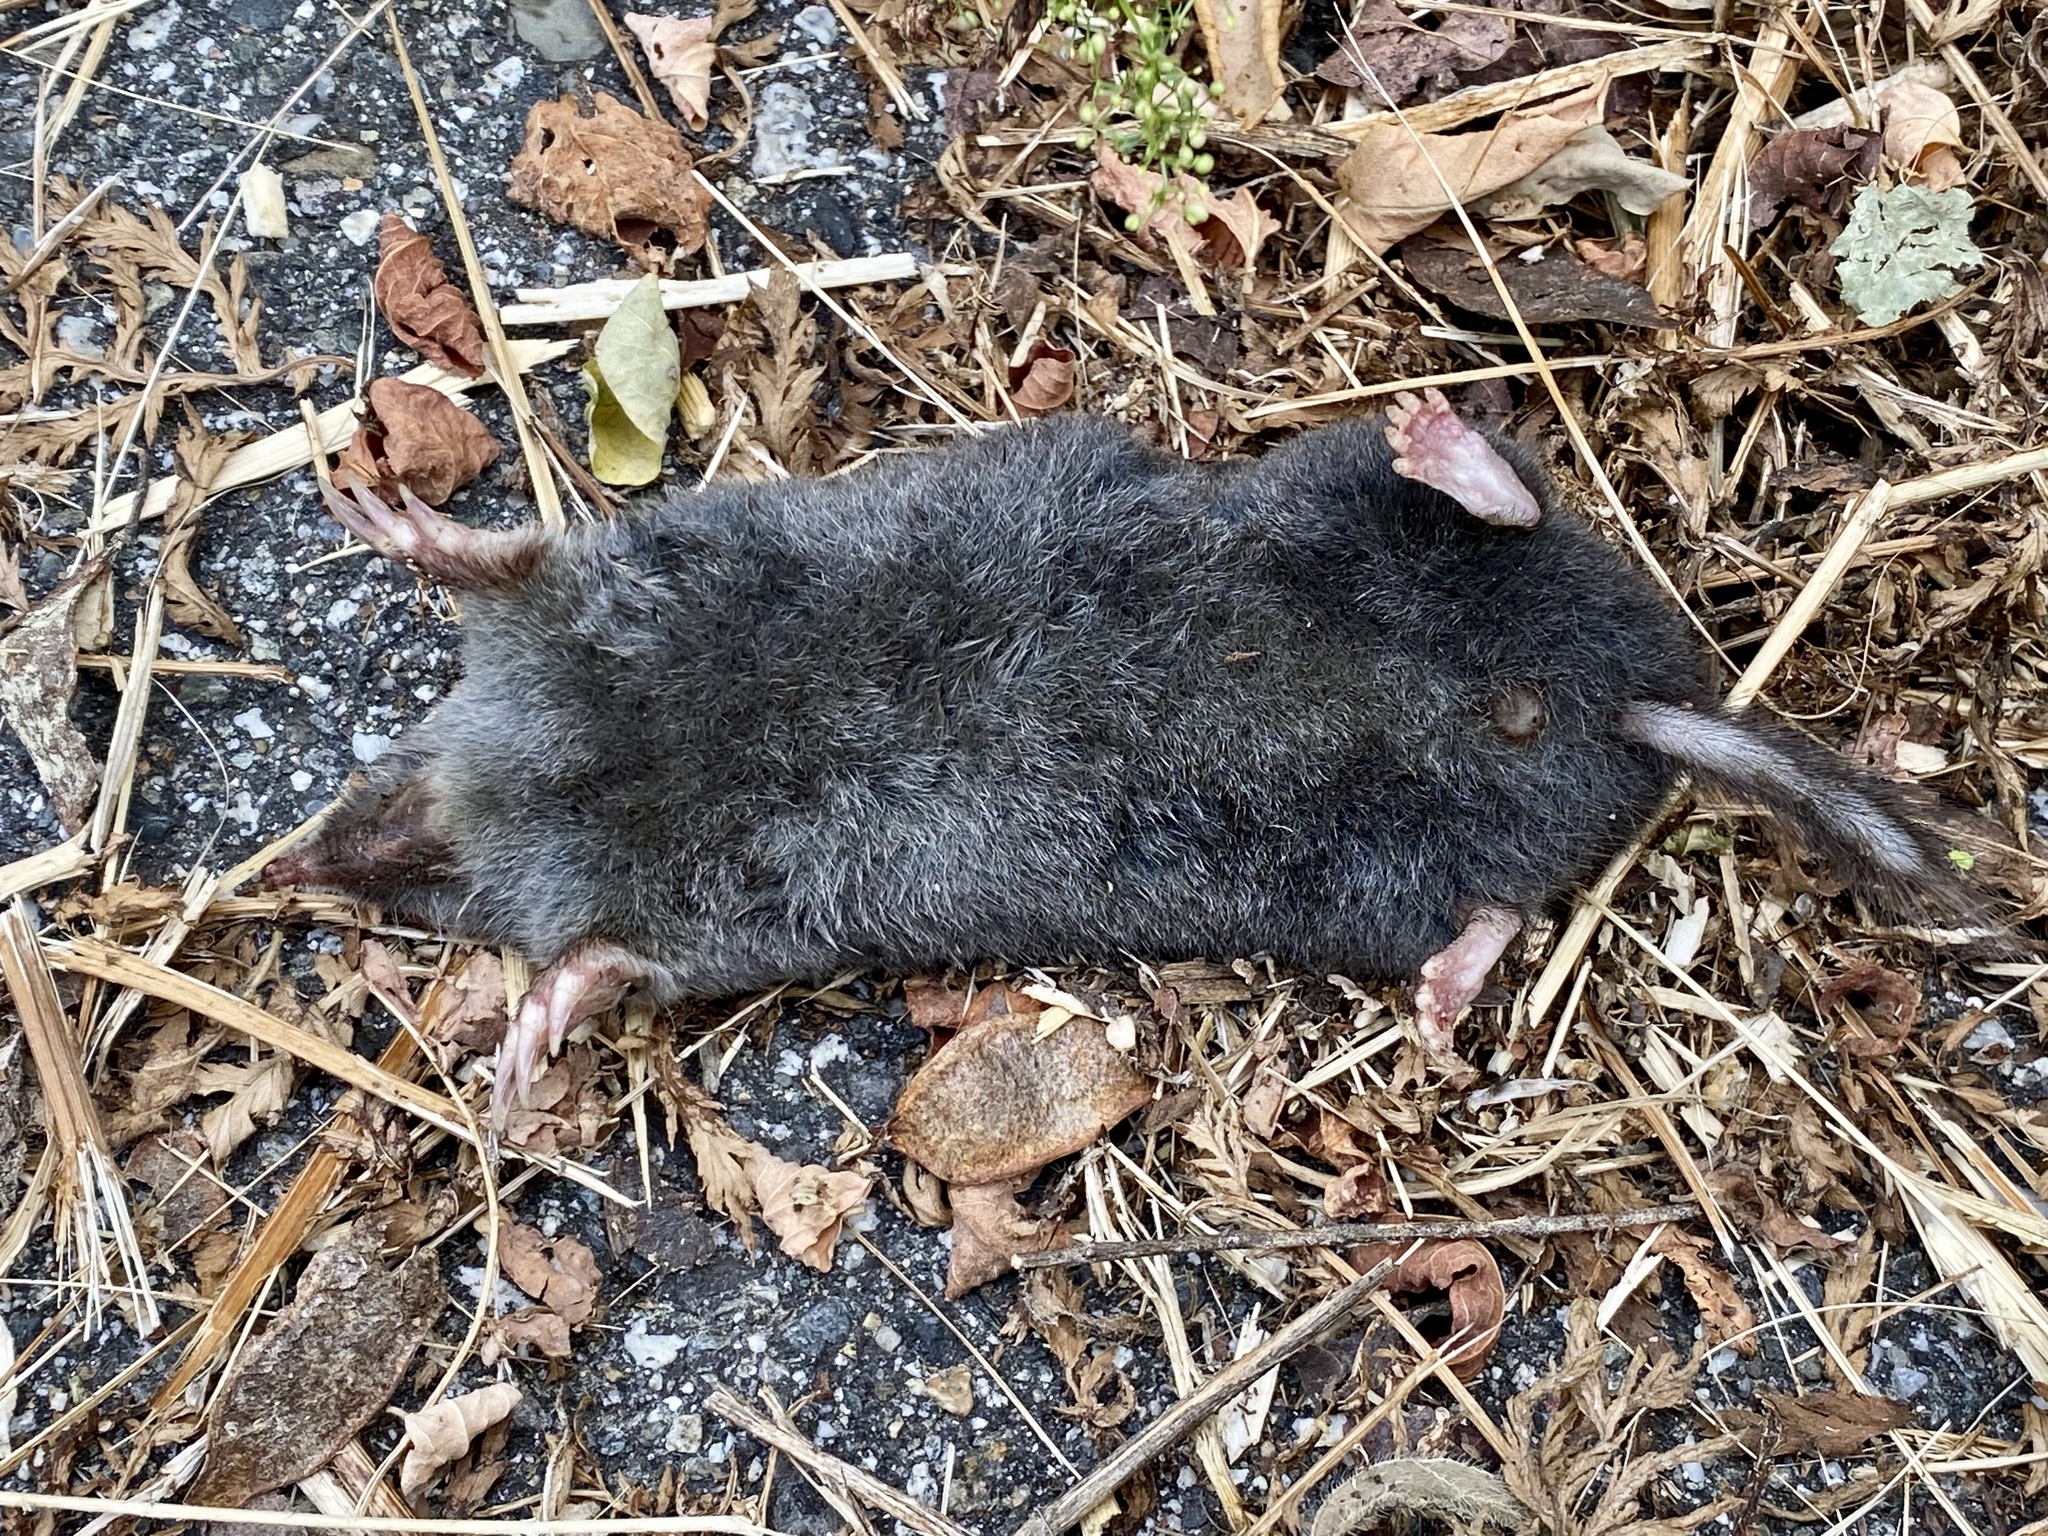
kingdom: Animalia
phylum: Chordata
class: Mammalia
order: Soricomorpha
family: Talpidae
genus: Parascalops
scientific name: Parascalops breweri
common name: Hairy-tailed mole
